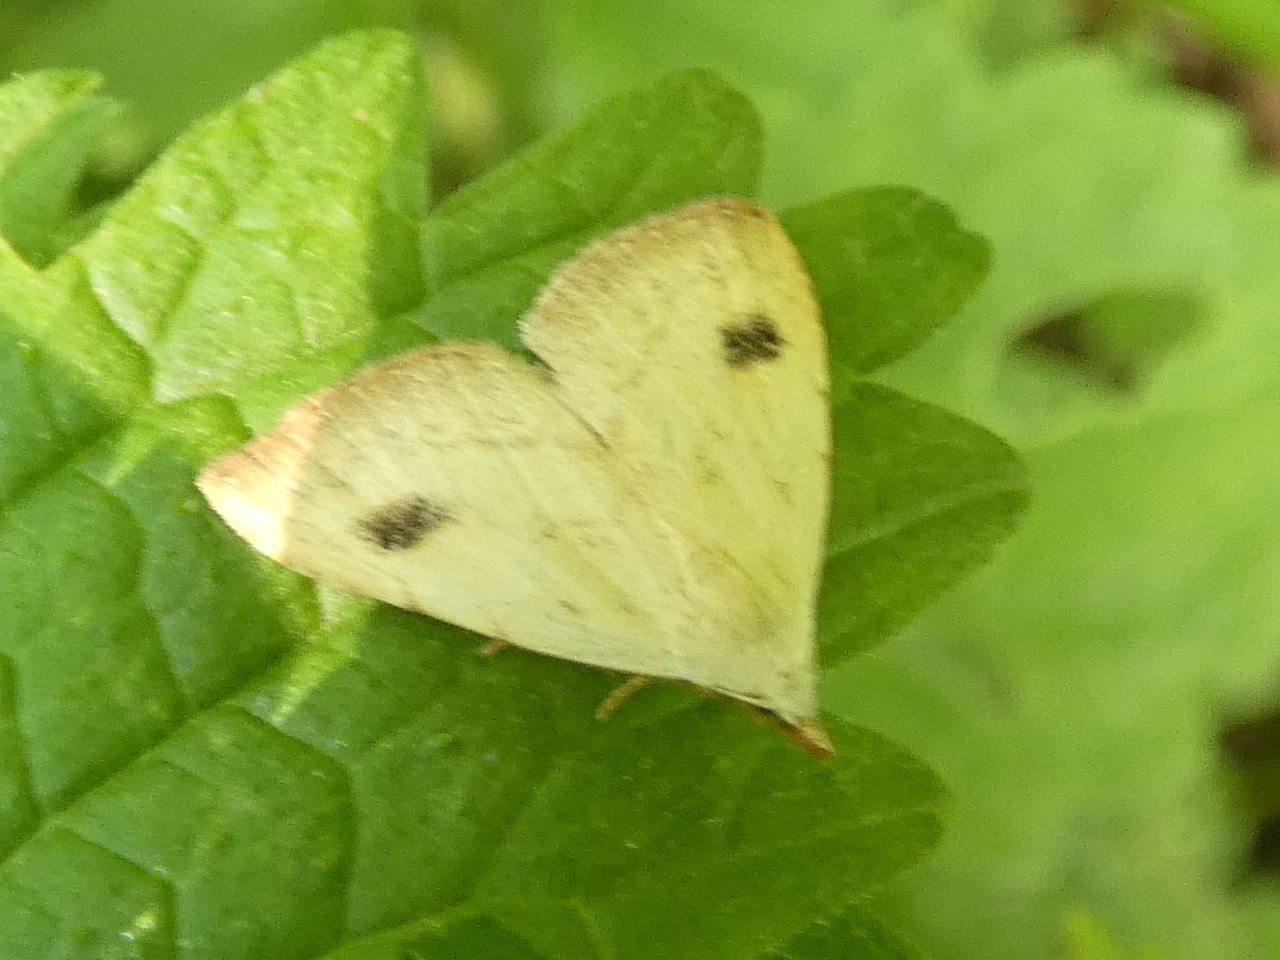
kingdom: Animalia
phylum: Arthropoda
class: Insecta
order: Lepidoptera
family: Erebidae
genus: Rivula
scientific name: Rivula sericealis
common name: Straw dot
